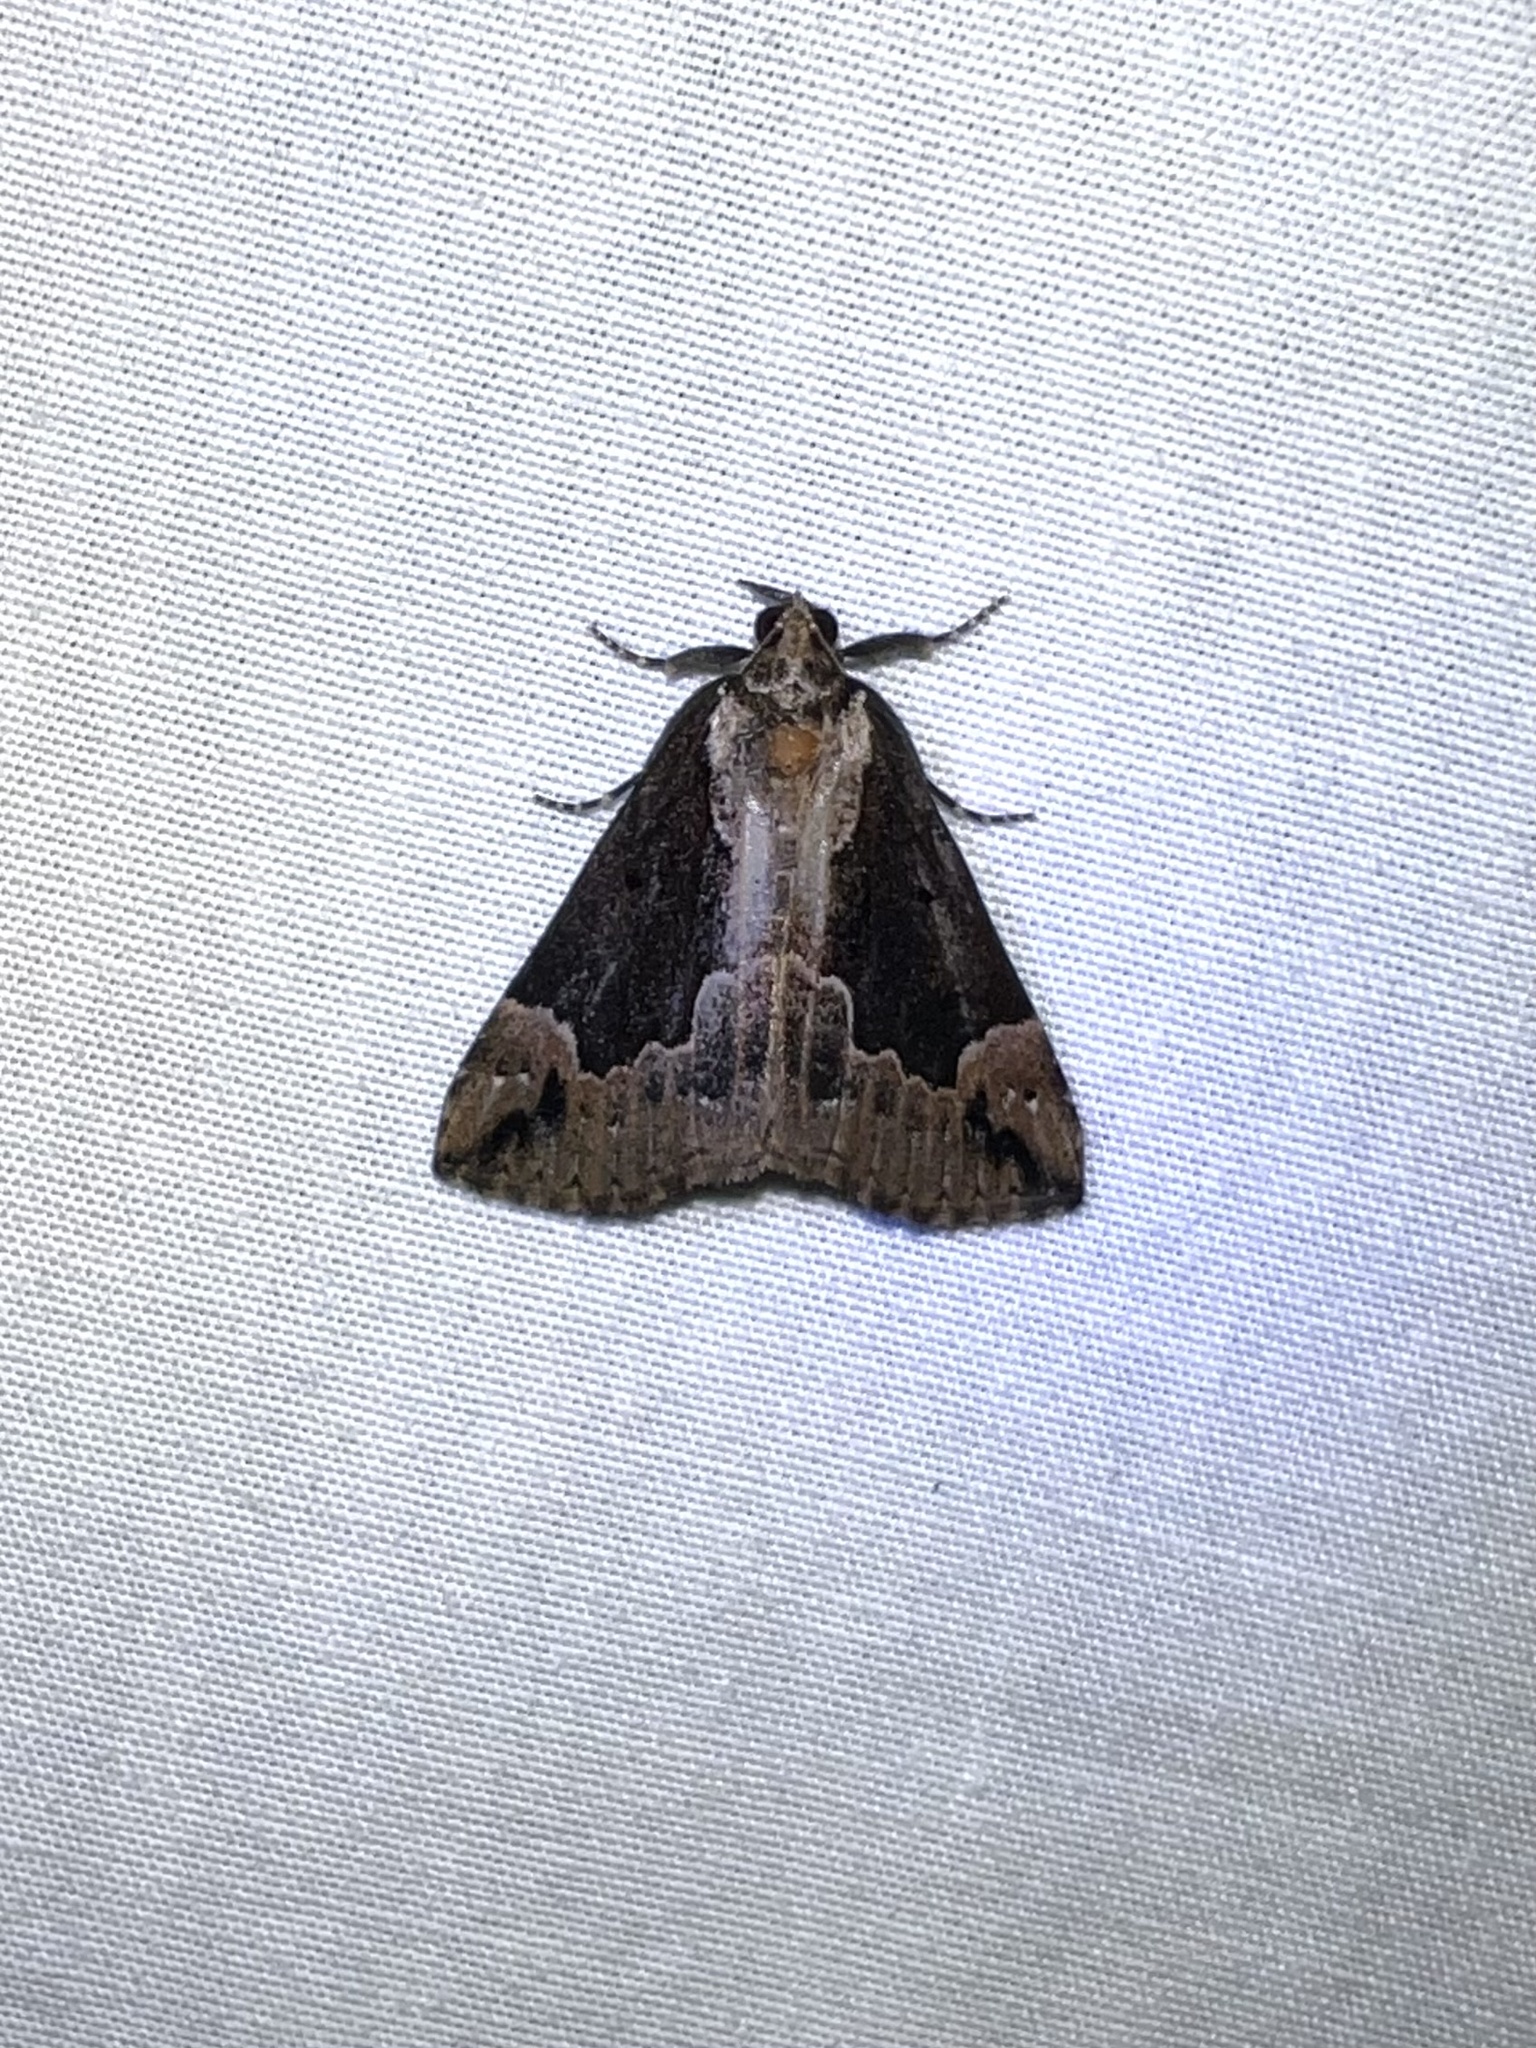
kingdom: Animalia
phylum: Arthropoda
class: Insecta
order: Lepidoptera
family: Erebidae
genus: Hypena
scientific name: Hypena baltimoralis
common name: Baltimore snout
